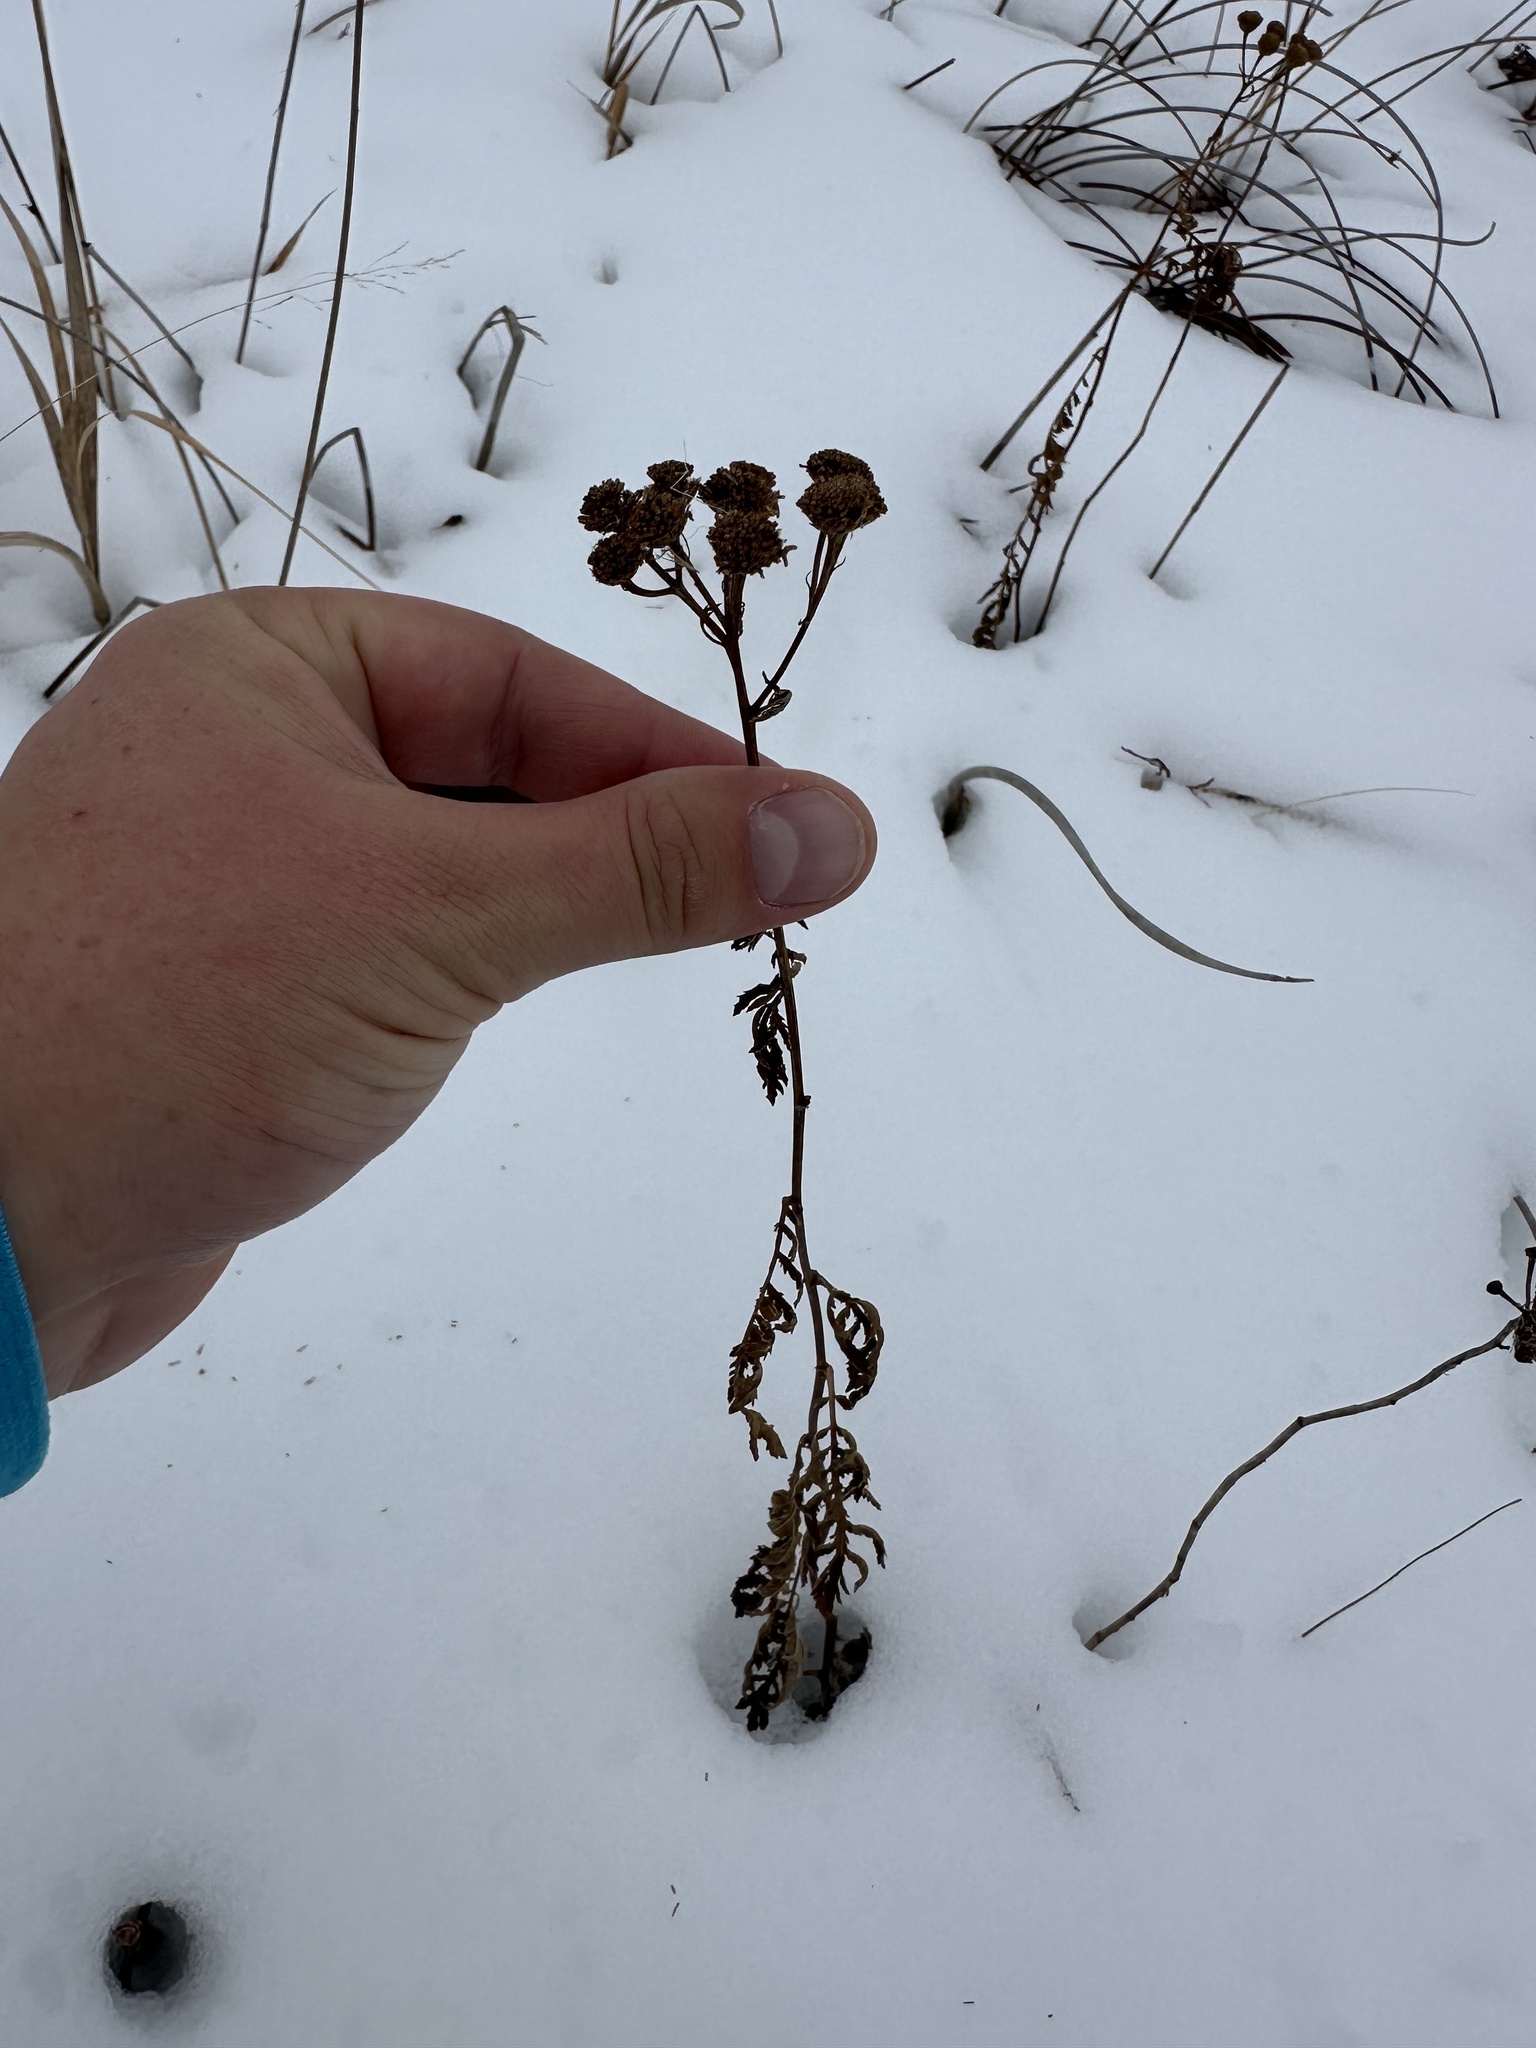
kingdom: Plantae
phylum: Tracheophyta
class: Magnoliopsida
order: Asterales
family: Asteraceae
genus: Tanacetum
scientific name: Tanacetum vulgare
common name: Common tansy
